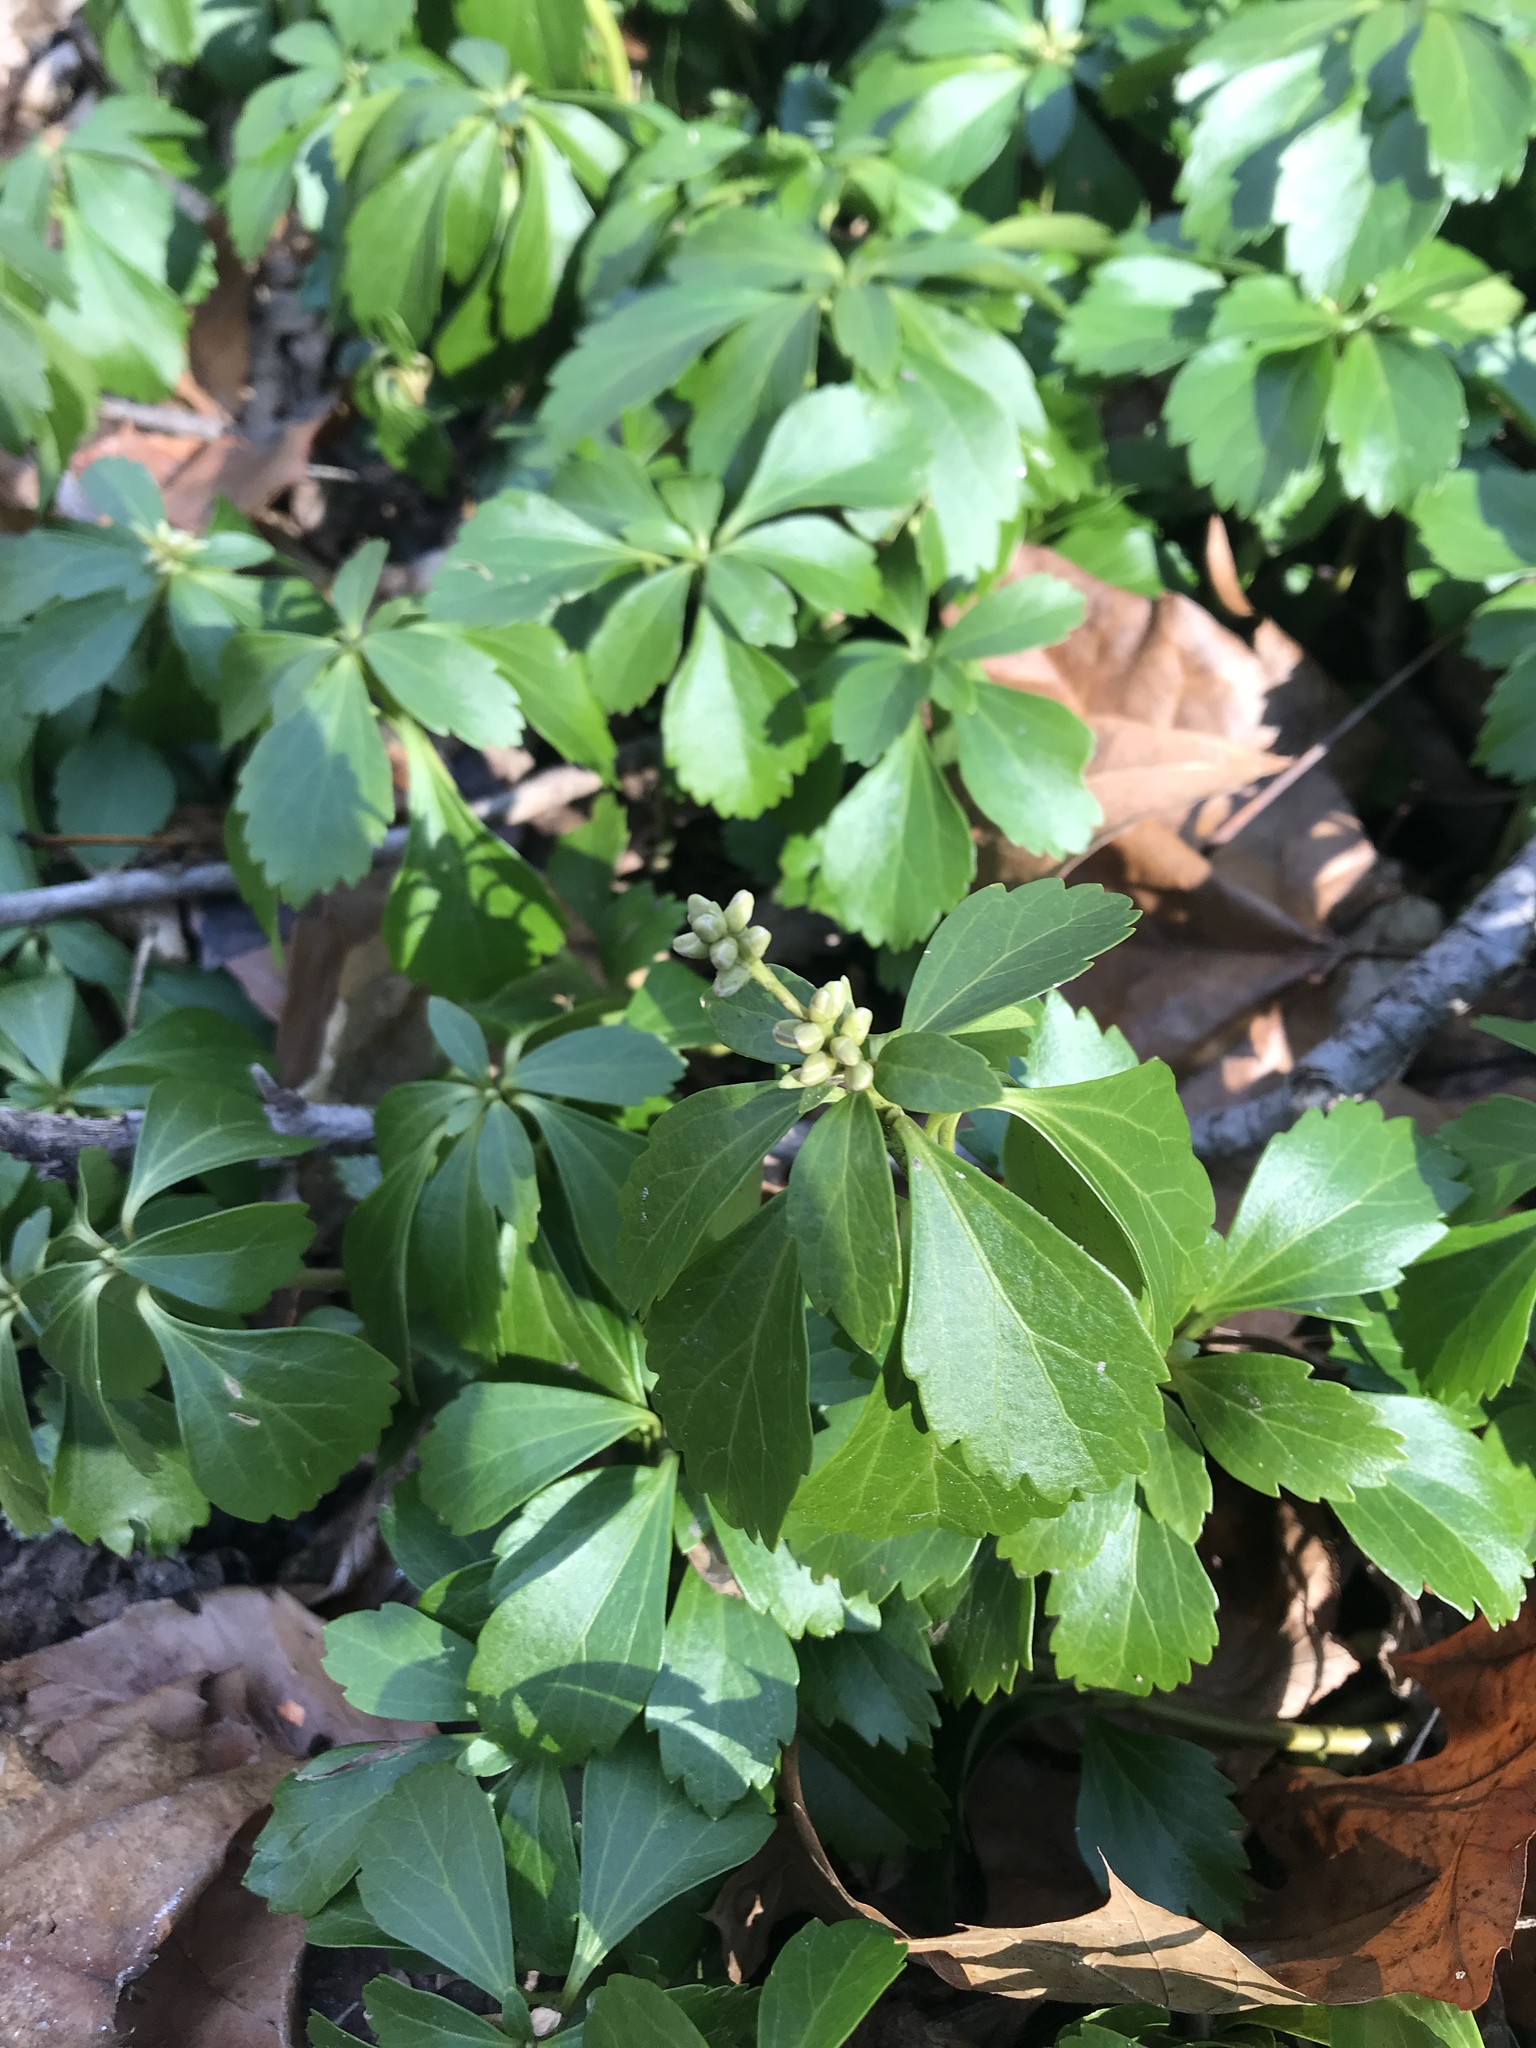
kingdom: Plantae
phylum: Tracheophyta
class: Magnoliopsida
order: Buxales
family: Buxaceae
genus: Pachysandra
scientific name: Pachysandra terminalis
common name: Japanese pachysandra
